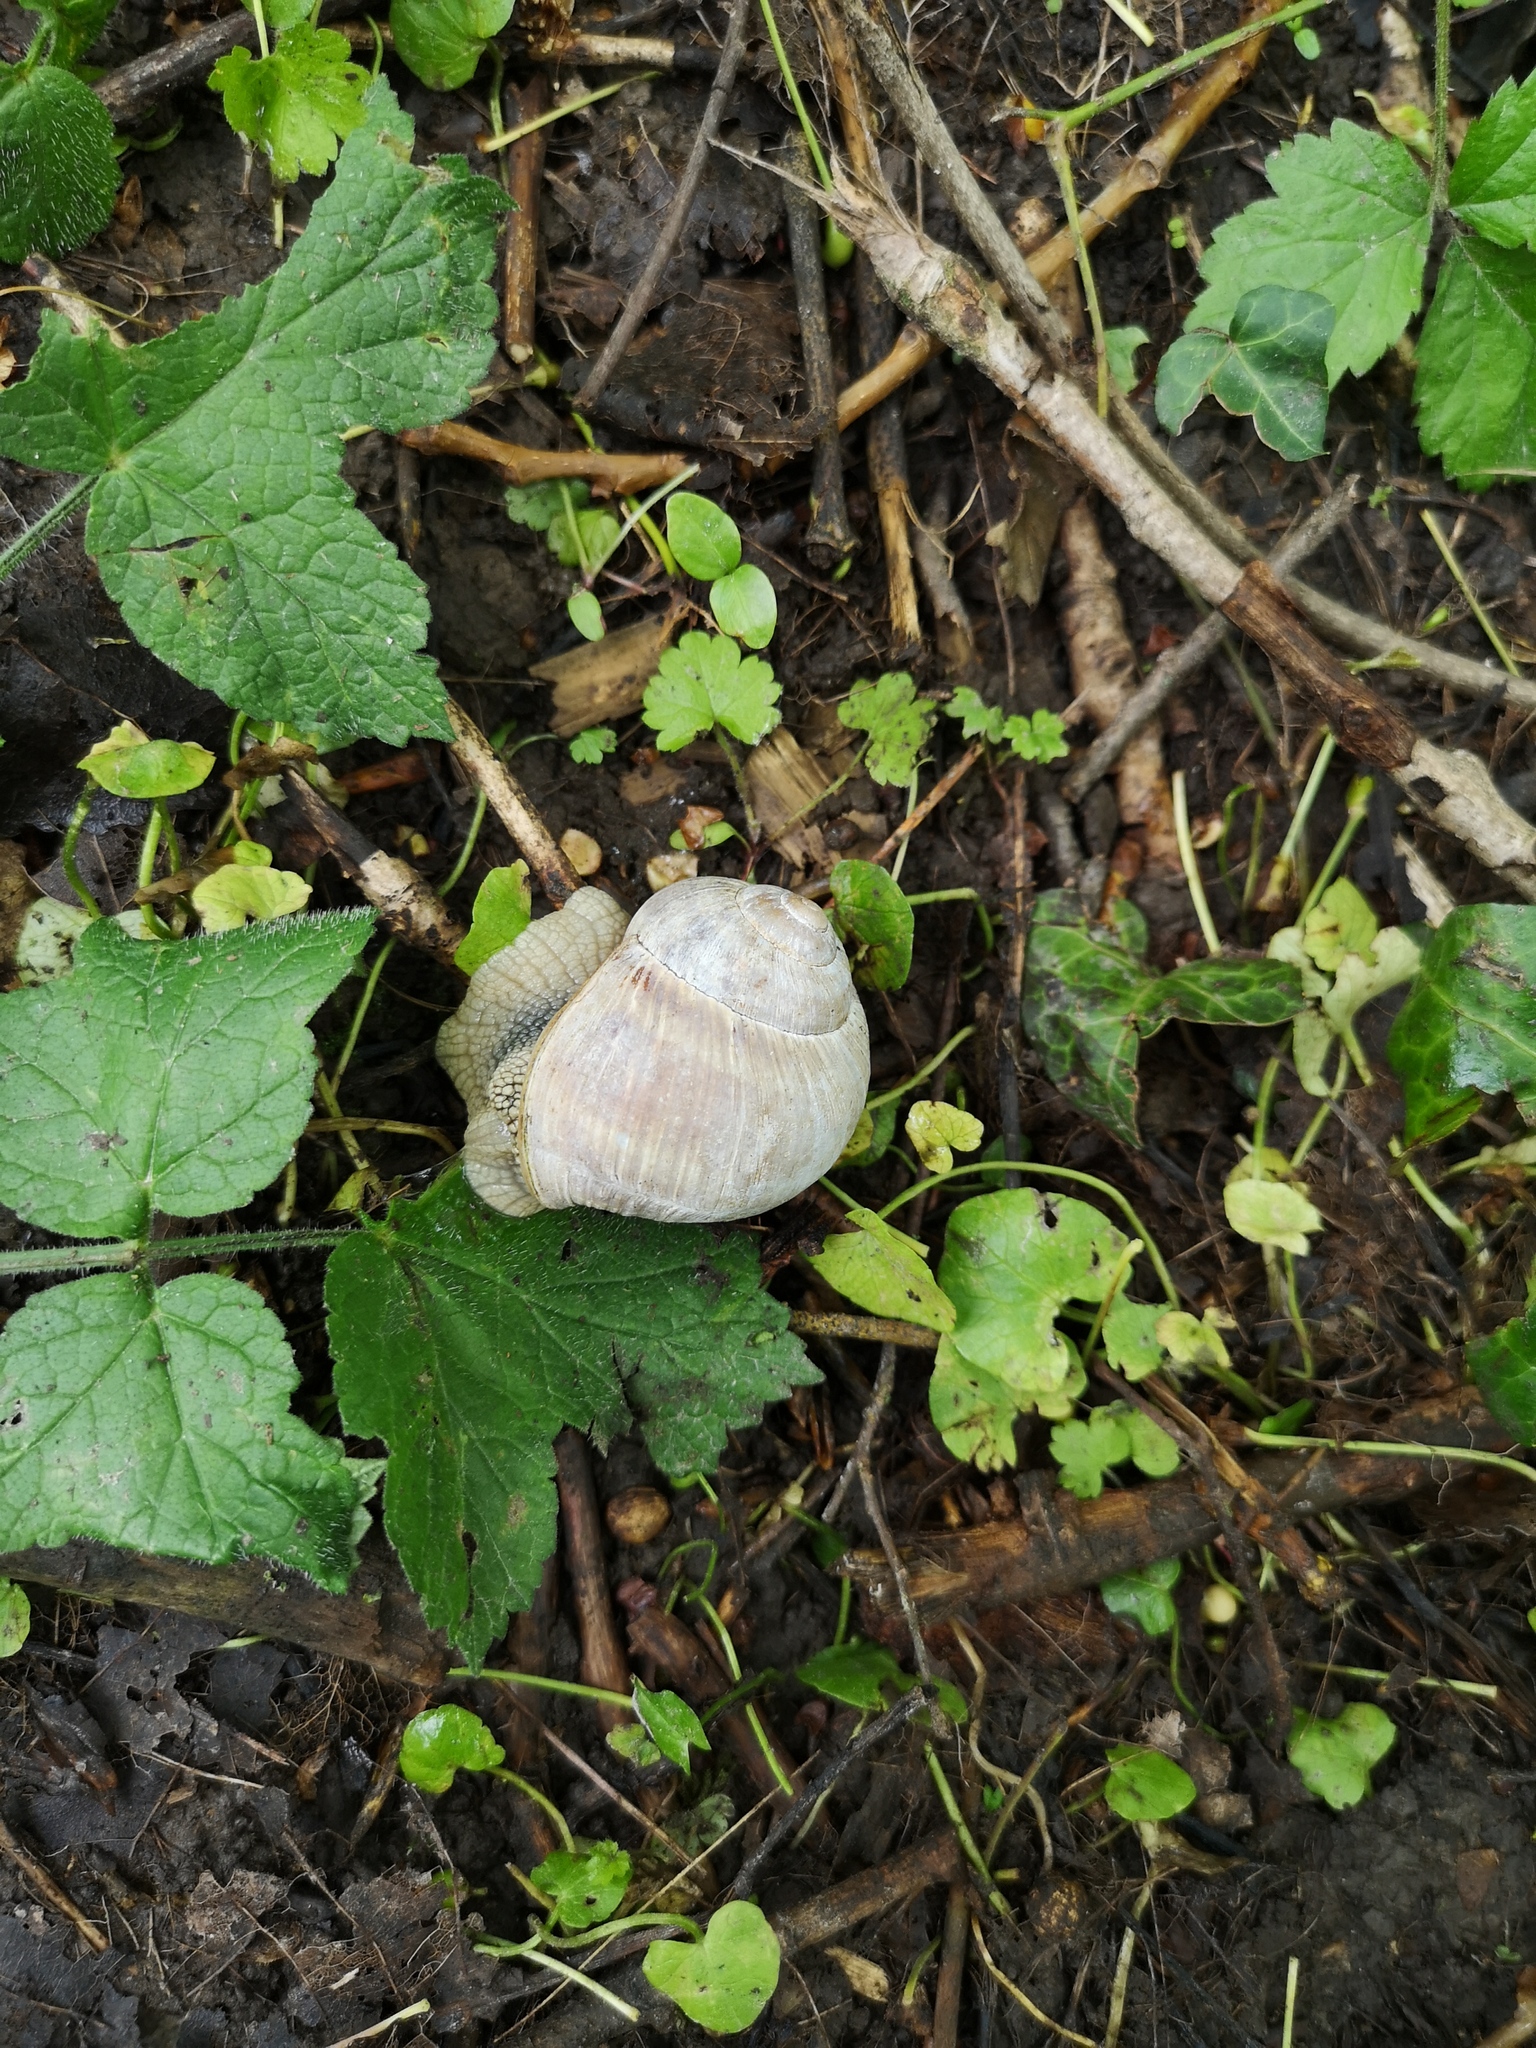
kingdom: Animalia
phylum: Mollusca
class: Gastropoda
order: Stylommatophora
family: Helicidae
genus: Helix
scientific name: Helix pomatia
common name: Roman snail
